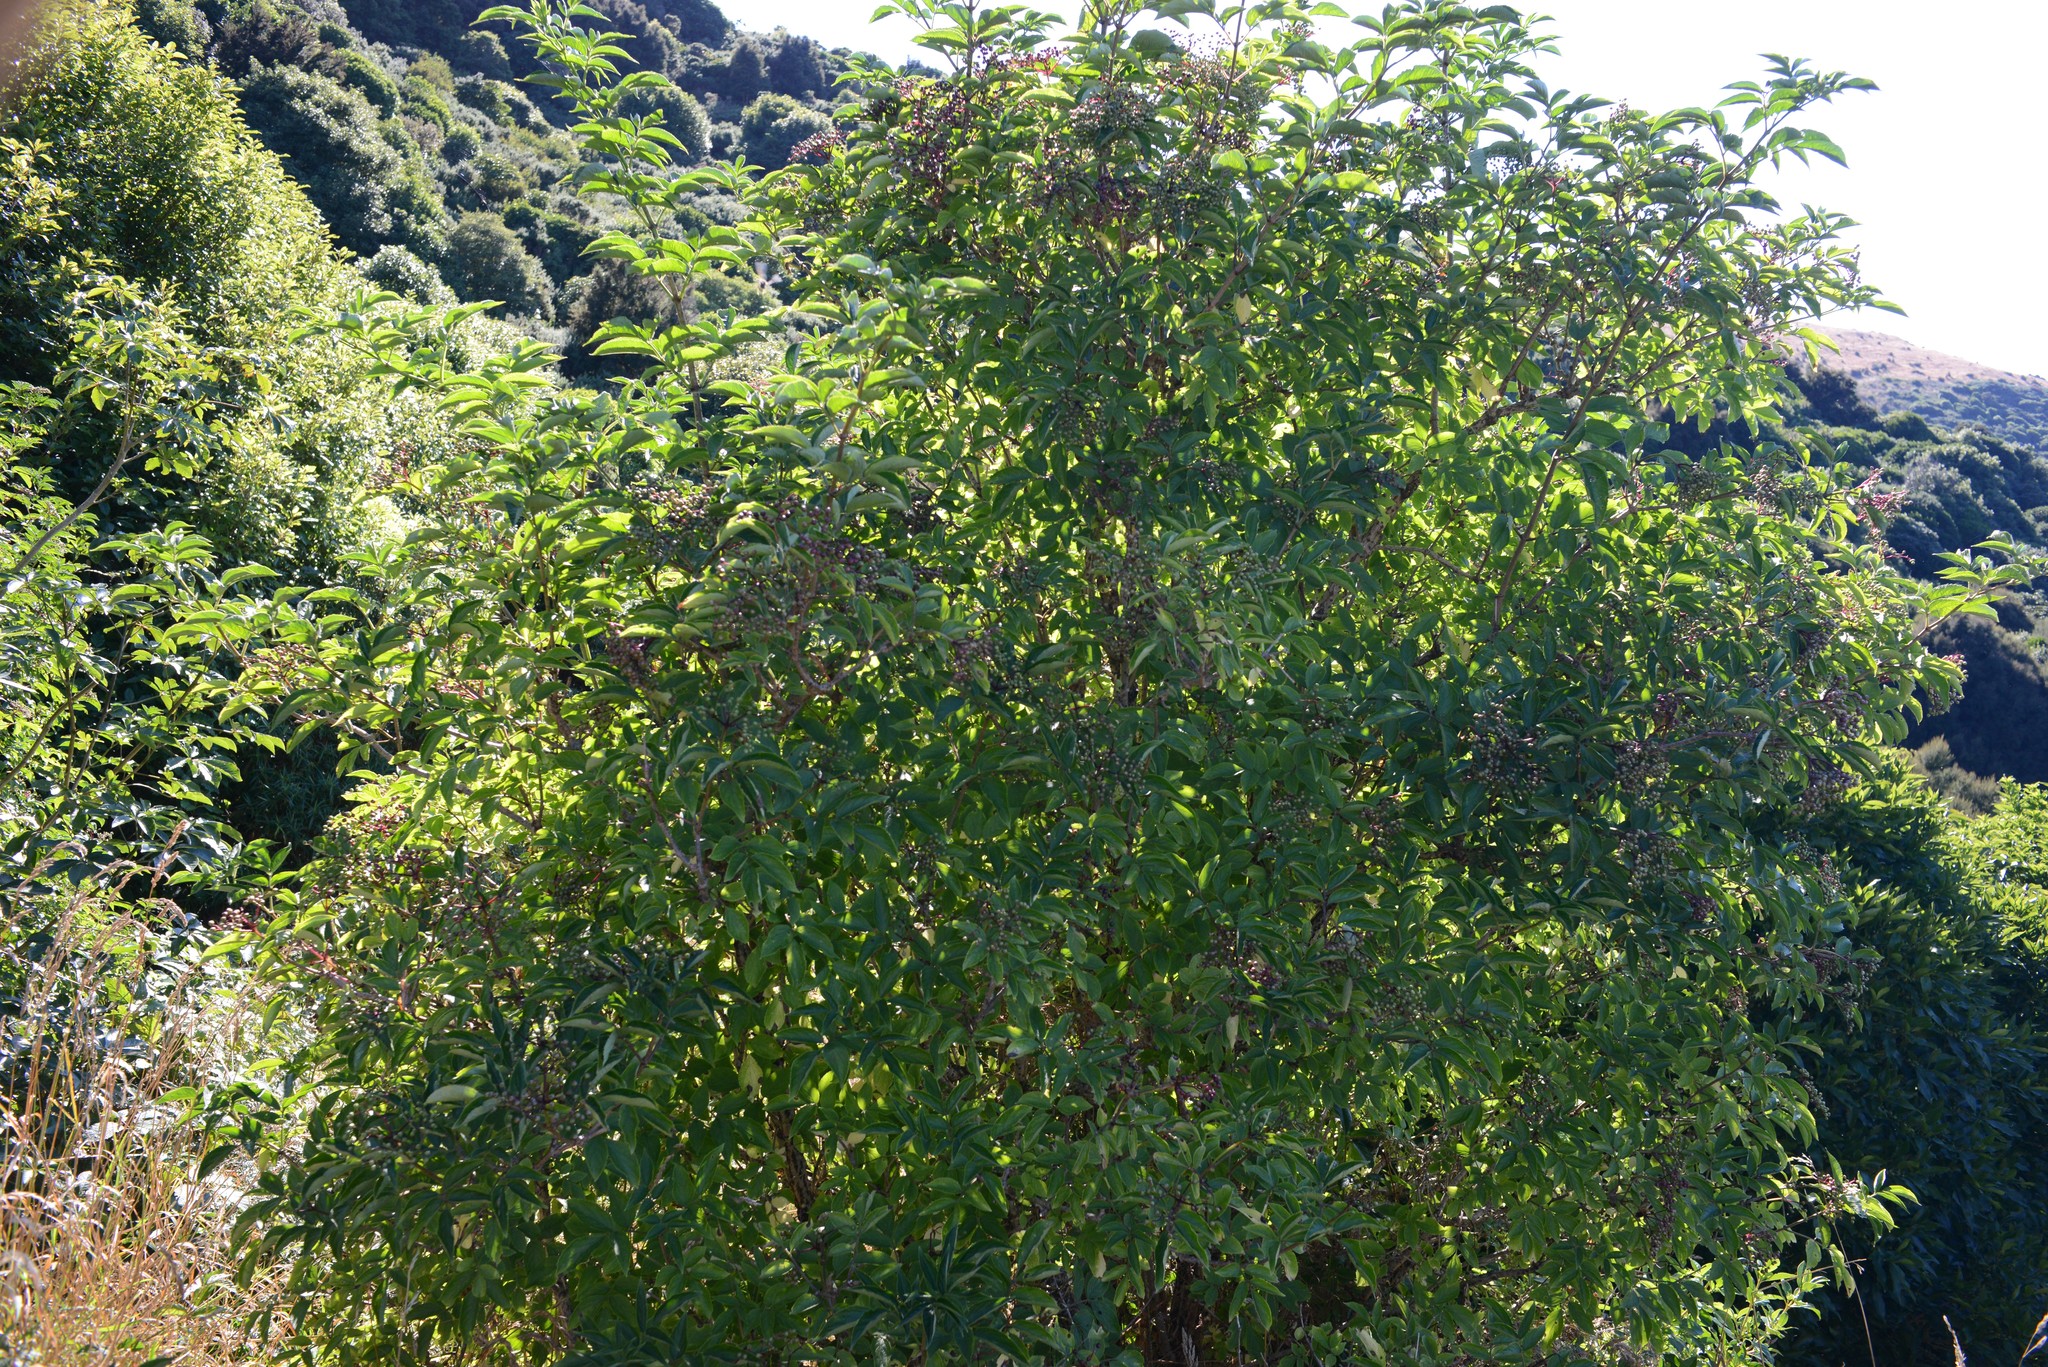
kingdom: Plantae
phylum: Tracheophyta
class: Magnoliopsida
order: Dipsacales
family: Viburnaceae
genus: Sambucus
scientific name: Sambucus nigra
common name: Elder
